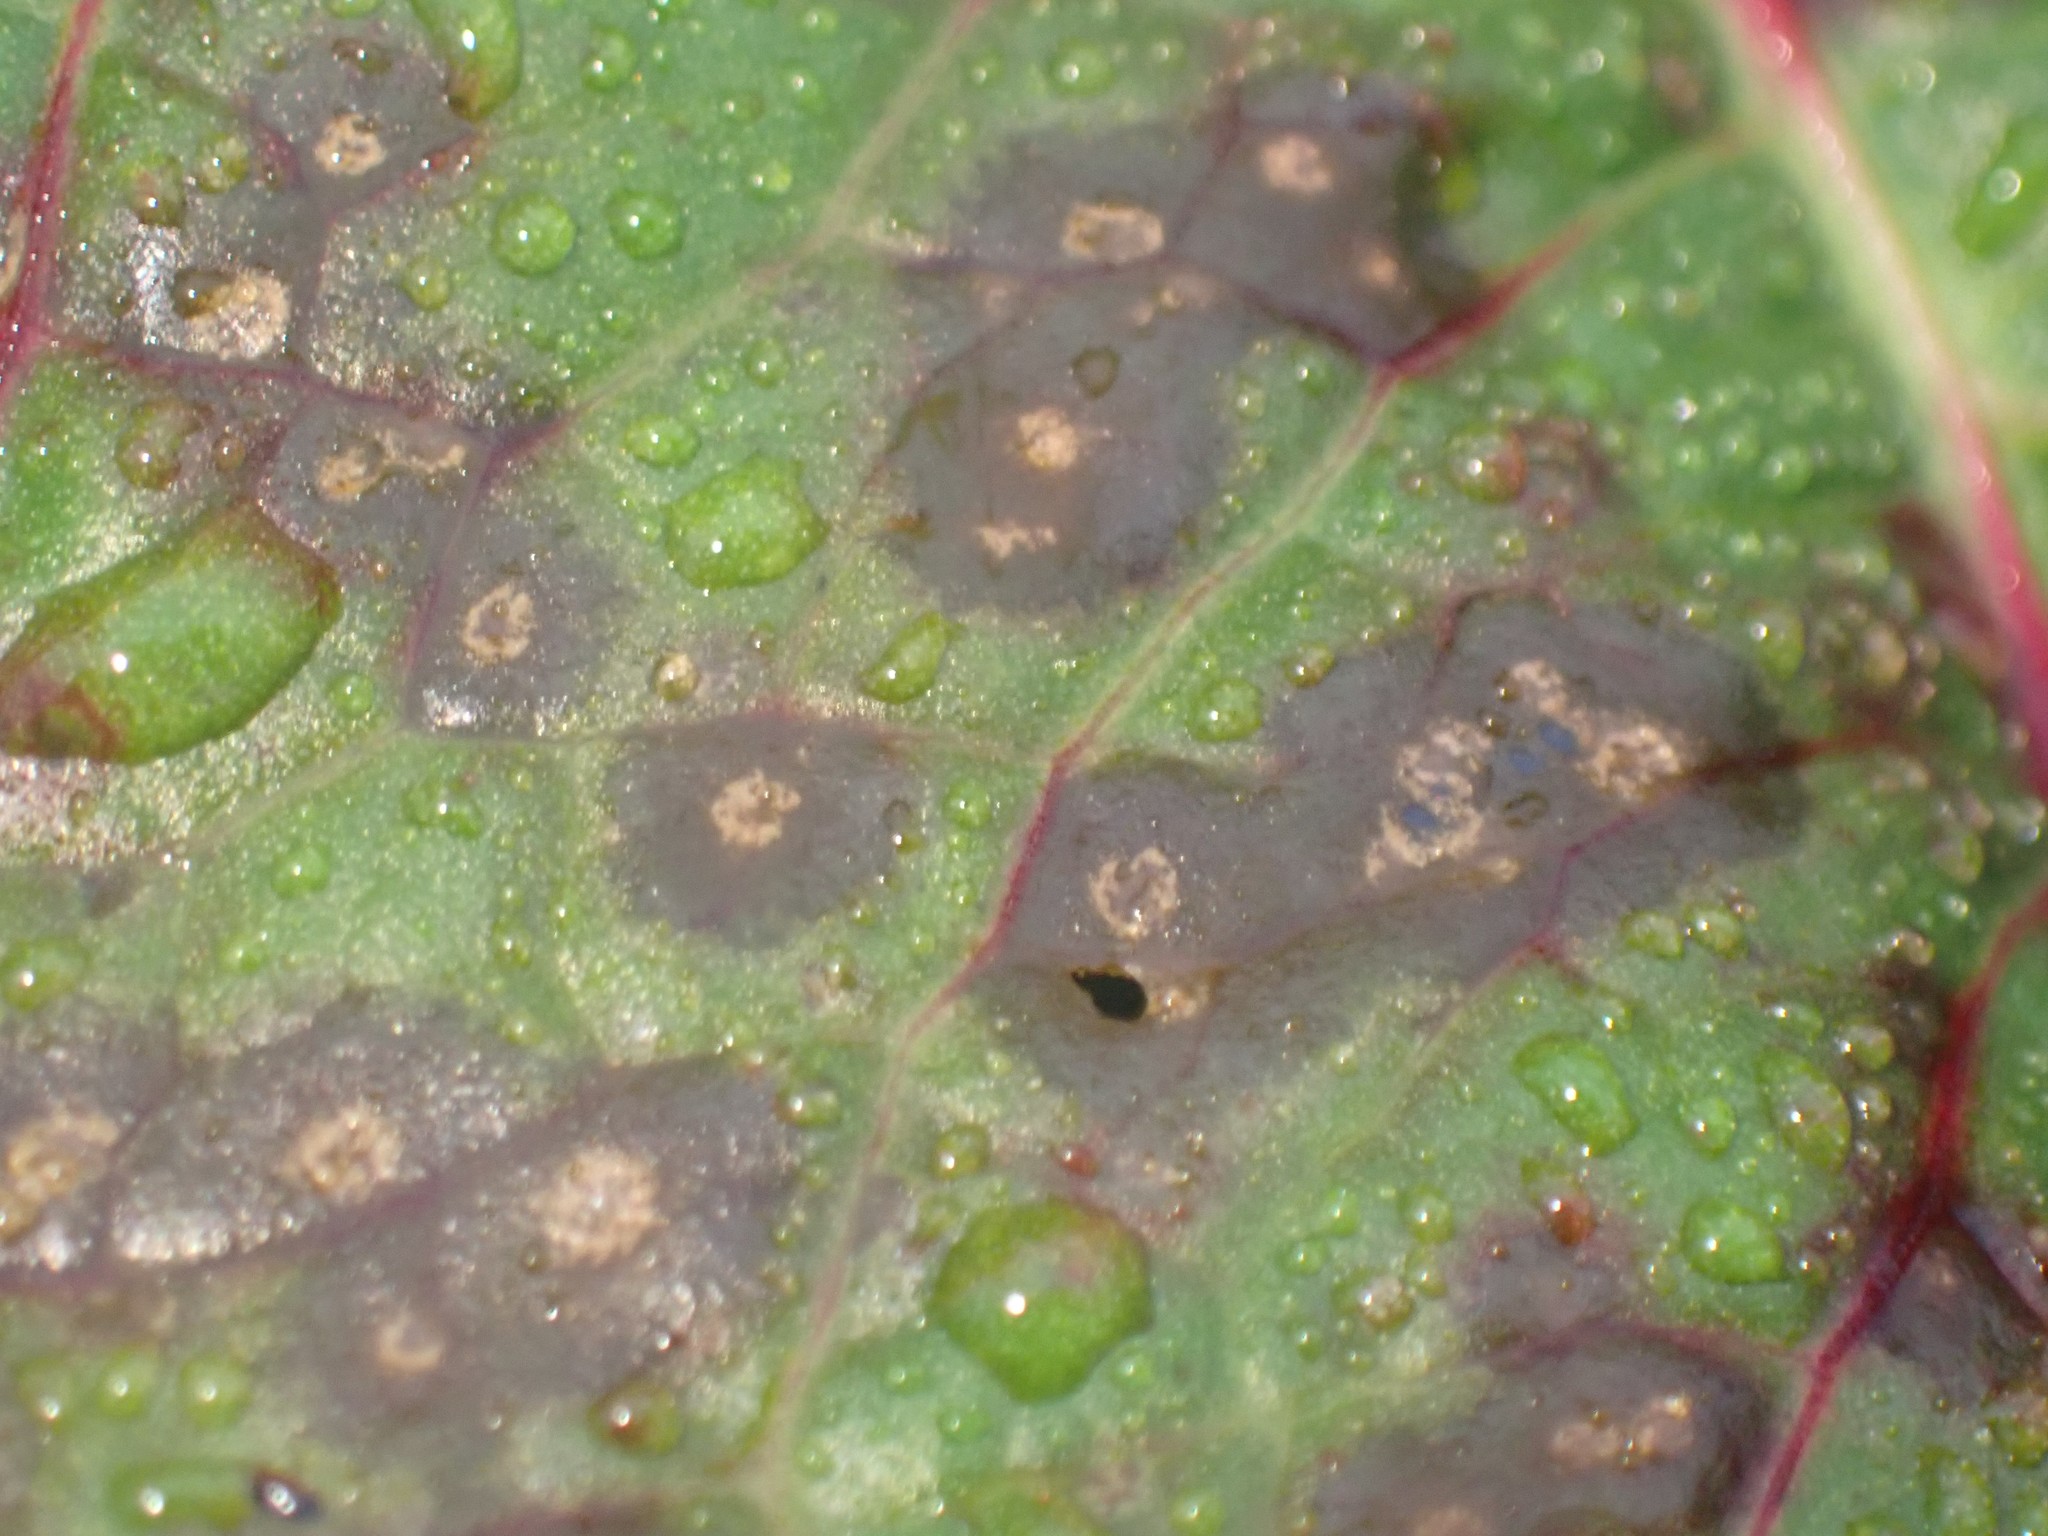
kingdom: Fungi
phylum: Ascomycota
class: Dothideomycetes
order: Mycosphaerellales
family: Mycosphaerellaceae
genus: Ramularia
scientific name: Ramularia rubella
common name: Red dock spot
